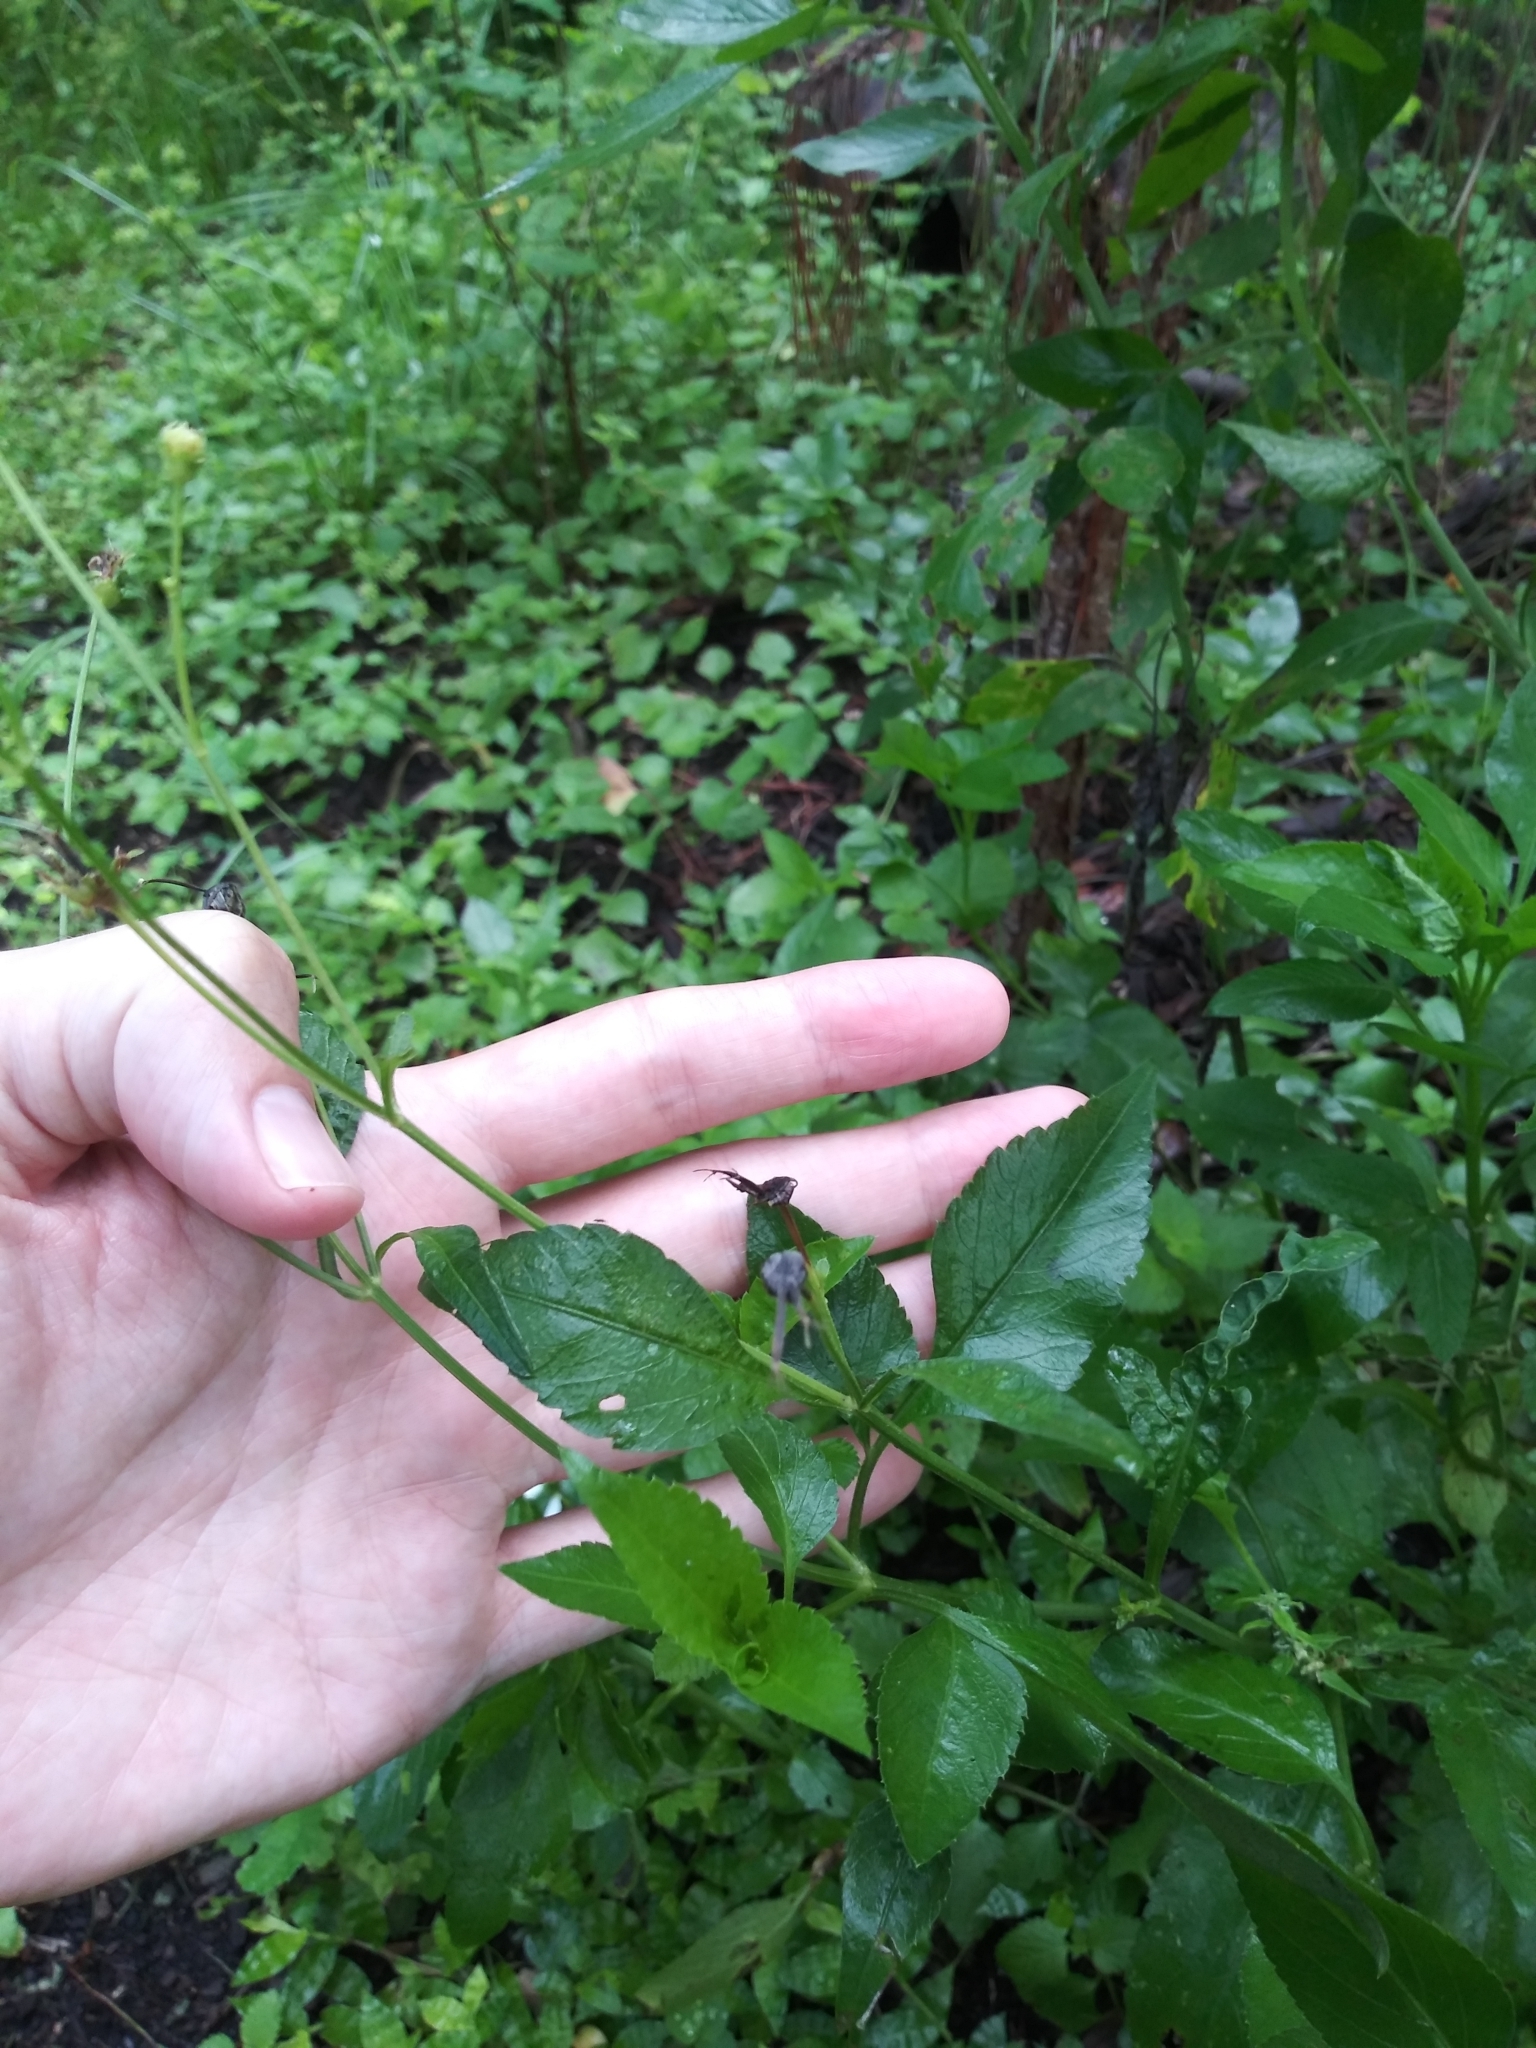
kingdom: Plantae
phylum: Tracheophyta
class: Magnoliopsida
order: Asterales
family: Asteraceae
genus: Bidens
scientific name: Bidens alba
